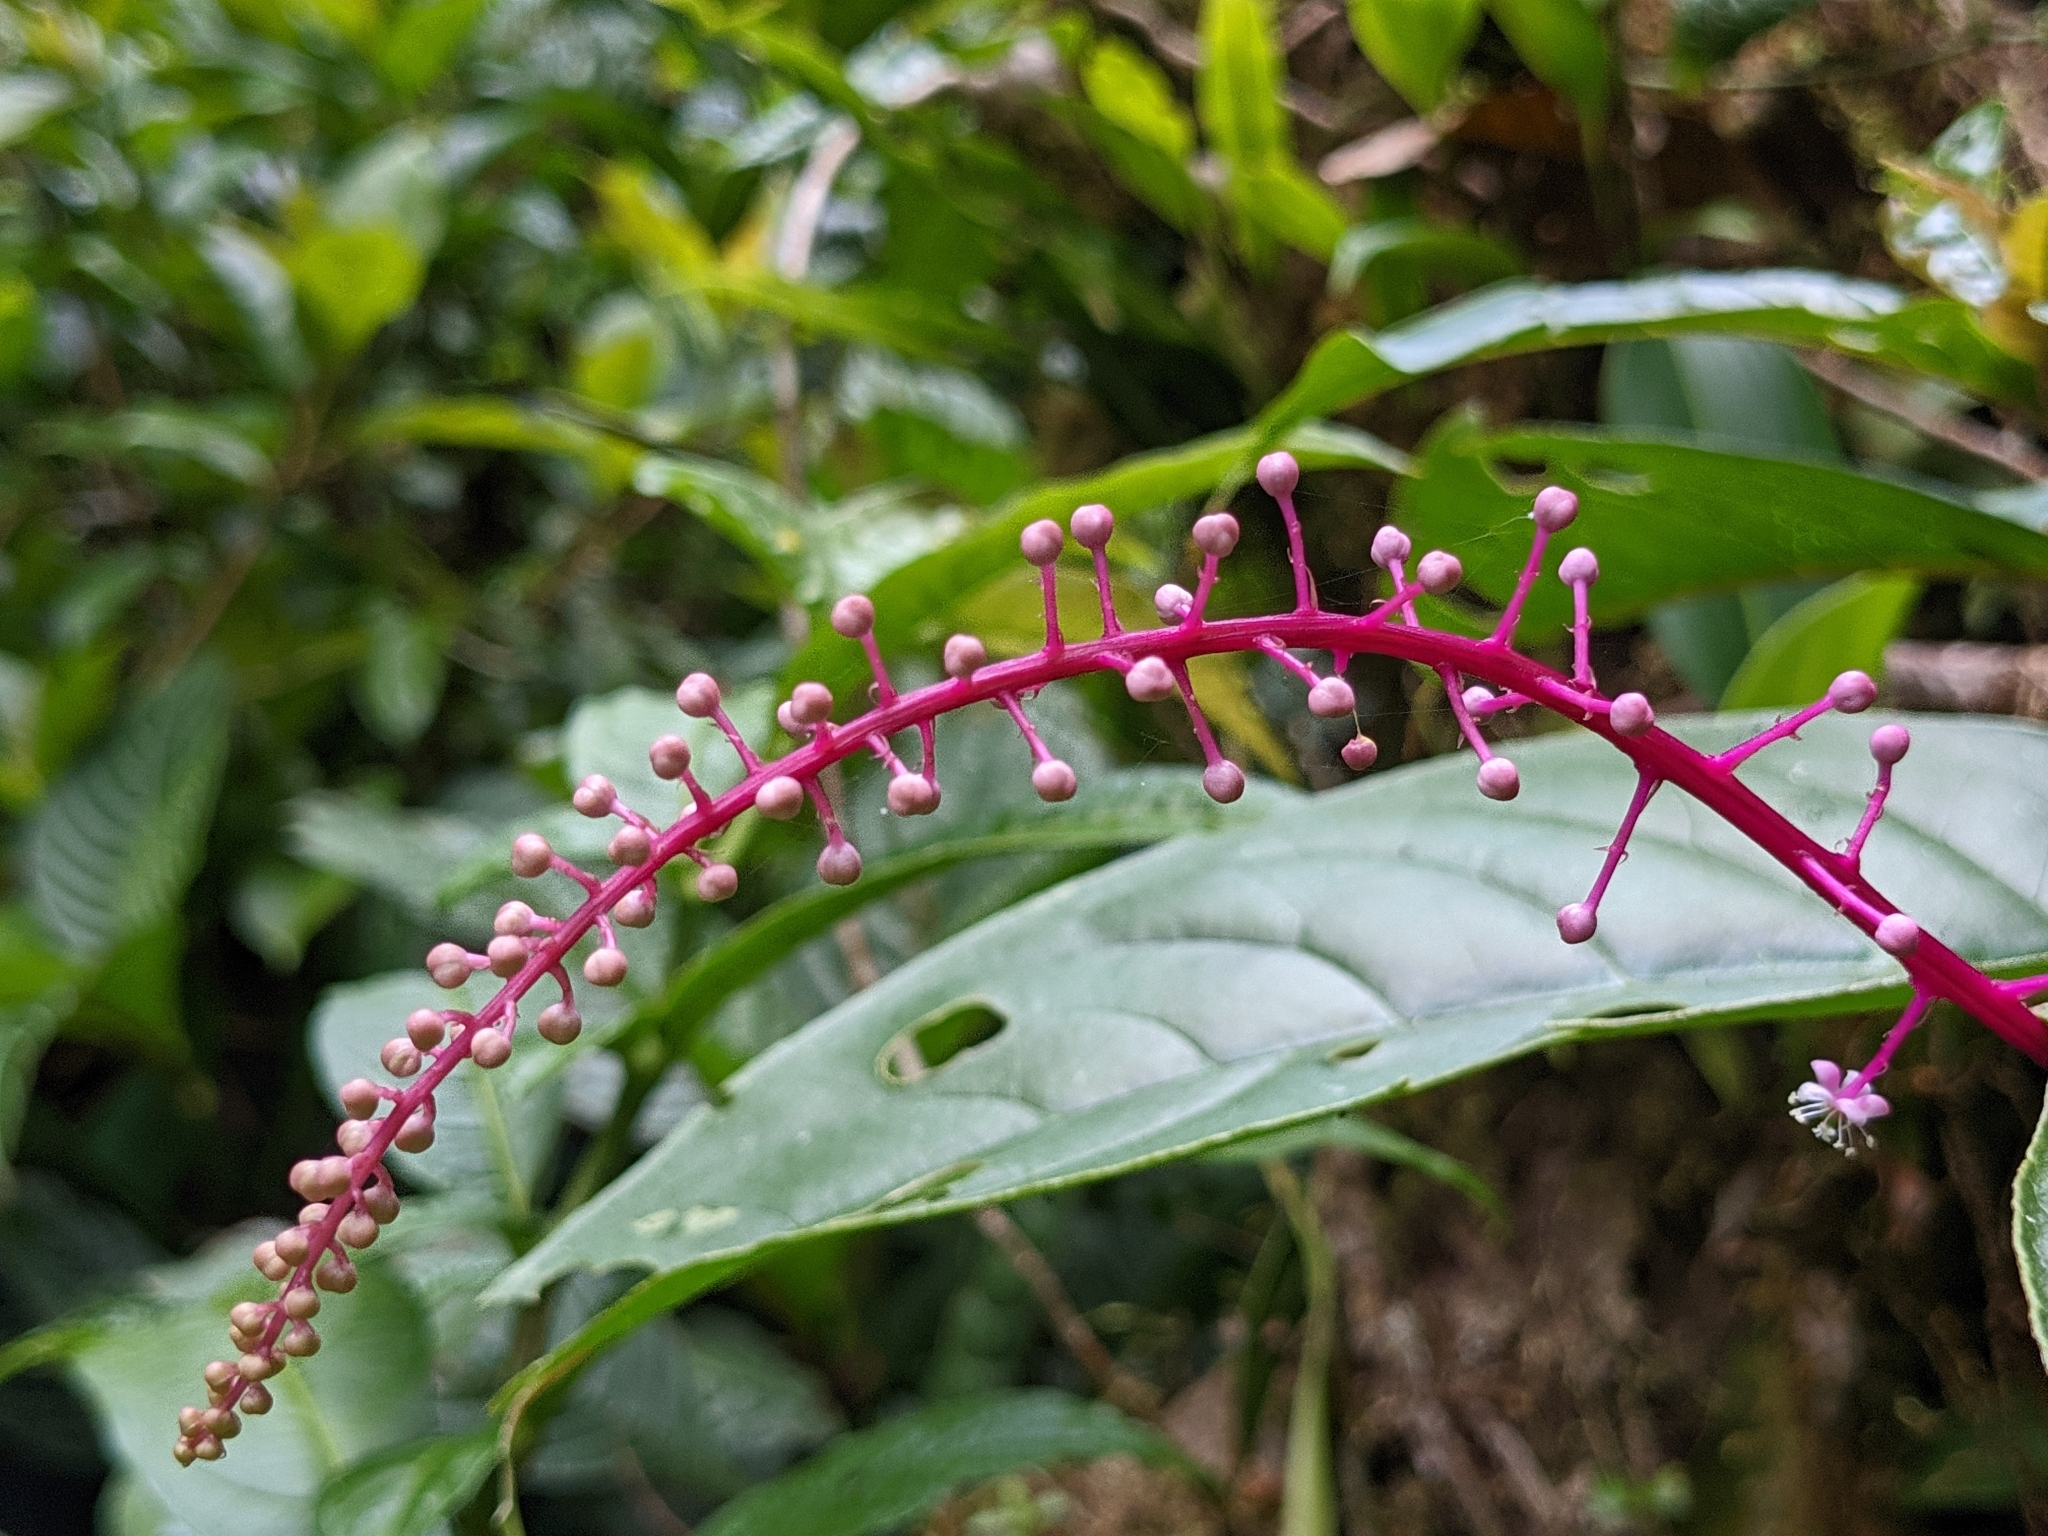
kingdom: Plantae
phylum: Tracheophyta
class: Magnoliopsida
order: Caryophyllales
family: Phytolaccaceae
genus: Phytolacca
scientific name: Phytolacca rivinoides
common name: Venezuelan pokeweed
